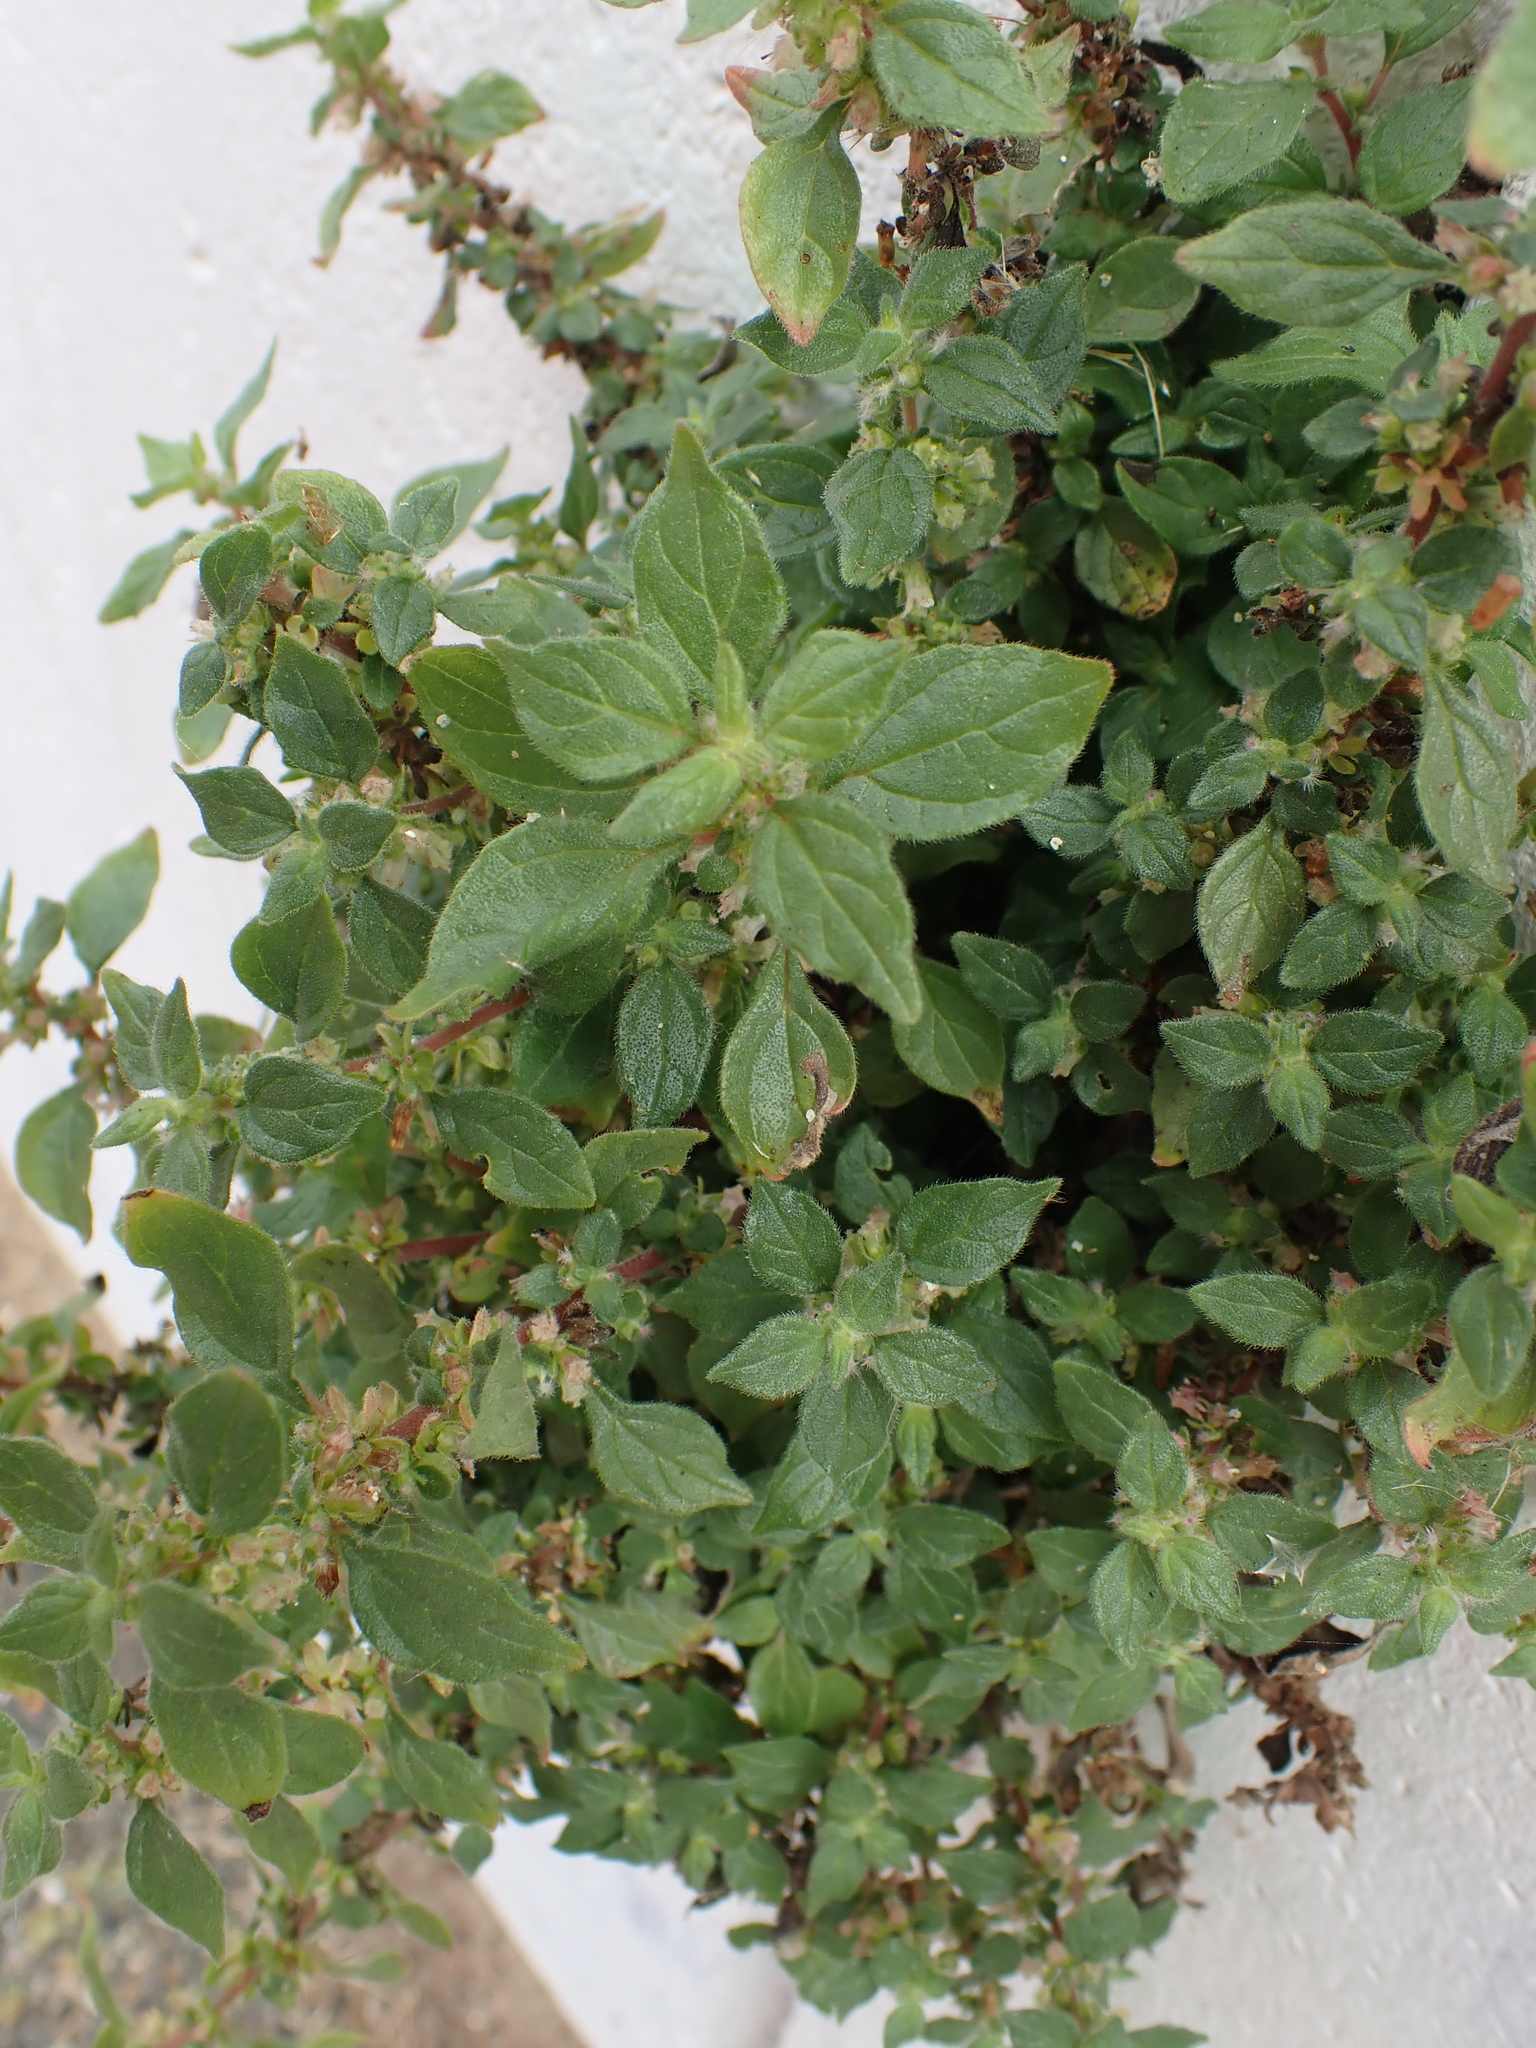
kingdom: Plantae
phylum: Tracheophyta
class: Magnoliopsida
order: Rosales
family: Urticaceae
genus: Parietaria
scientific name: Parietaria judaica
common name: Pellitory-of-the-wall
